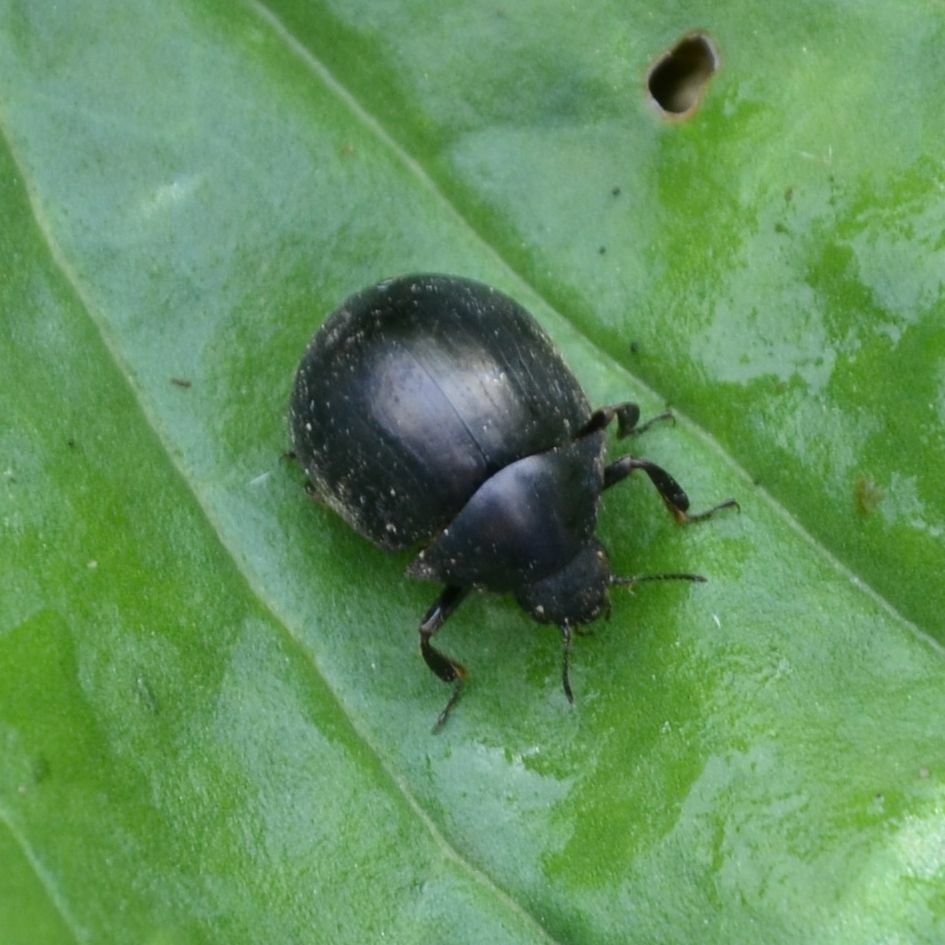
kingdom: Animalia
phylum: Arthropoda
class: Insecta
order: Coleoptera
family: Byrrhidae
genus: Byrrhus
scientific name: Byrrhus luniger
